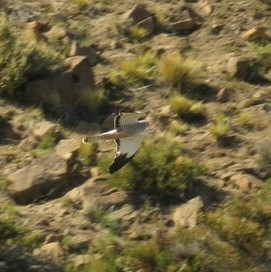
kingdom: Animalia
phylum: Chordata
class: Aves
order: Accipitriformes
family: Accipitridae
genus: Circus
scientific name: Circus cinereus
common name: Cinereous harrier
